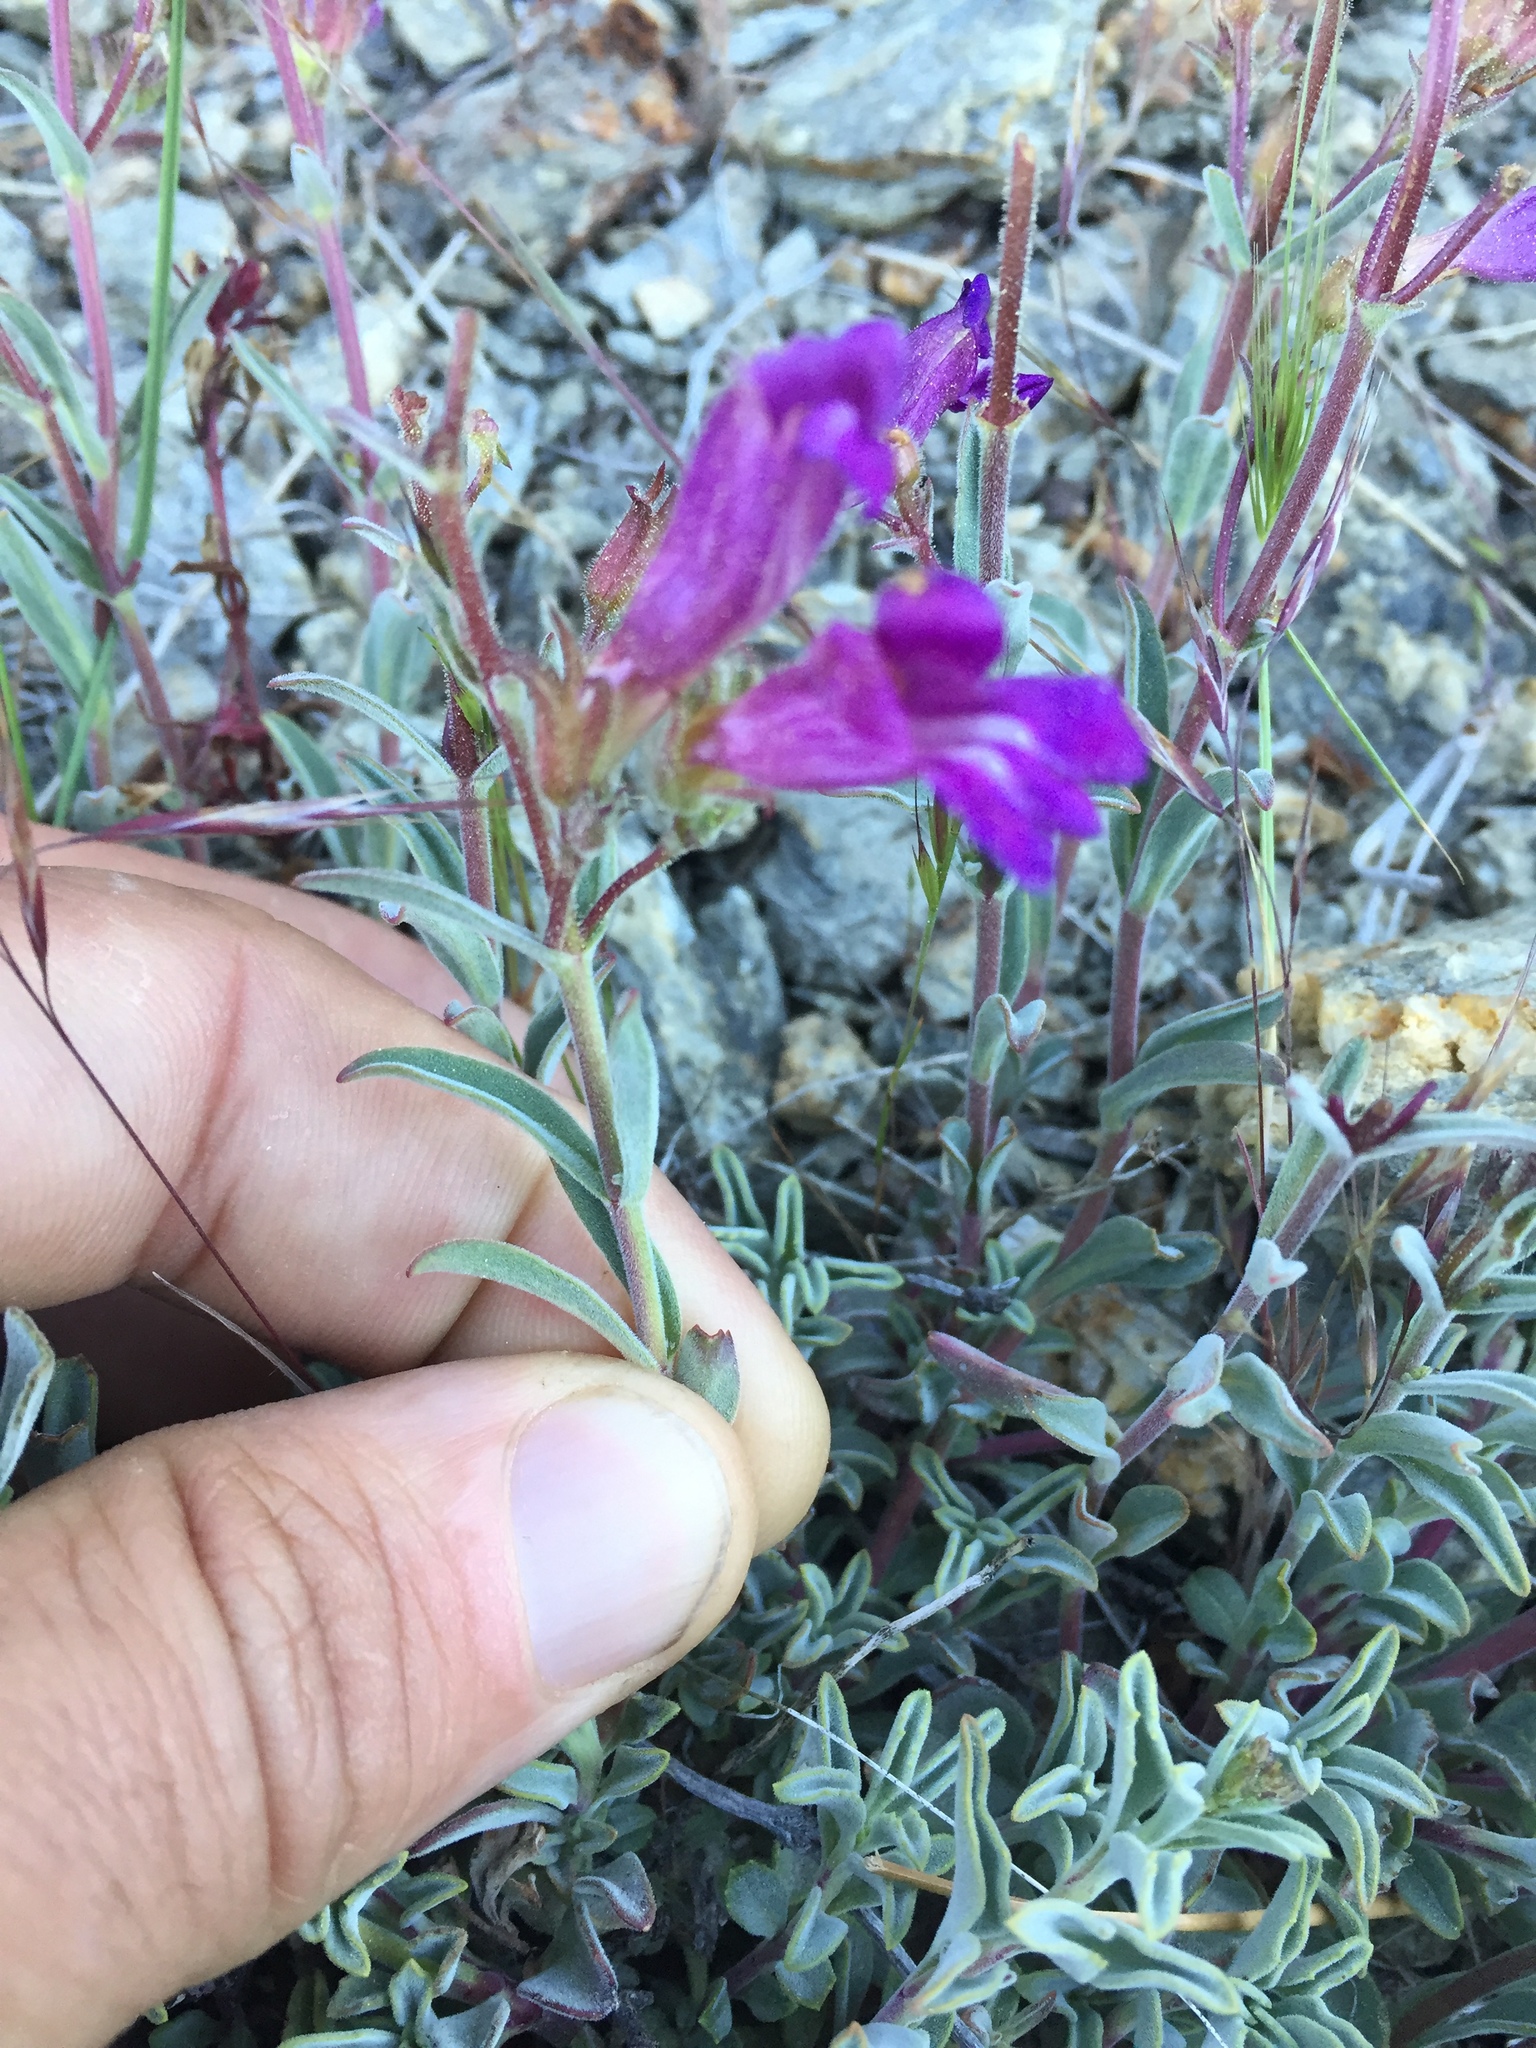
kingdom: Plantae
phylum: Tracheophyta
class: Magnoliopsida
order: Lamiales
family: Plantaginaceae
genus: Penstemon
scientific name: Penstemon purpusii
